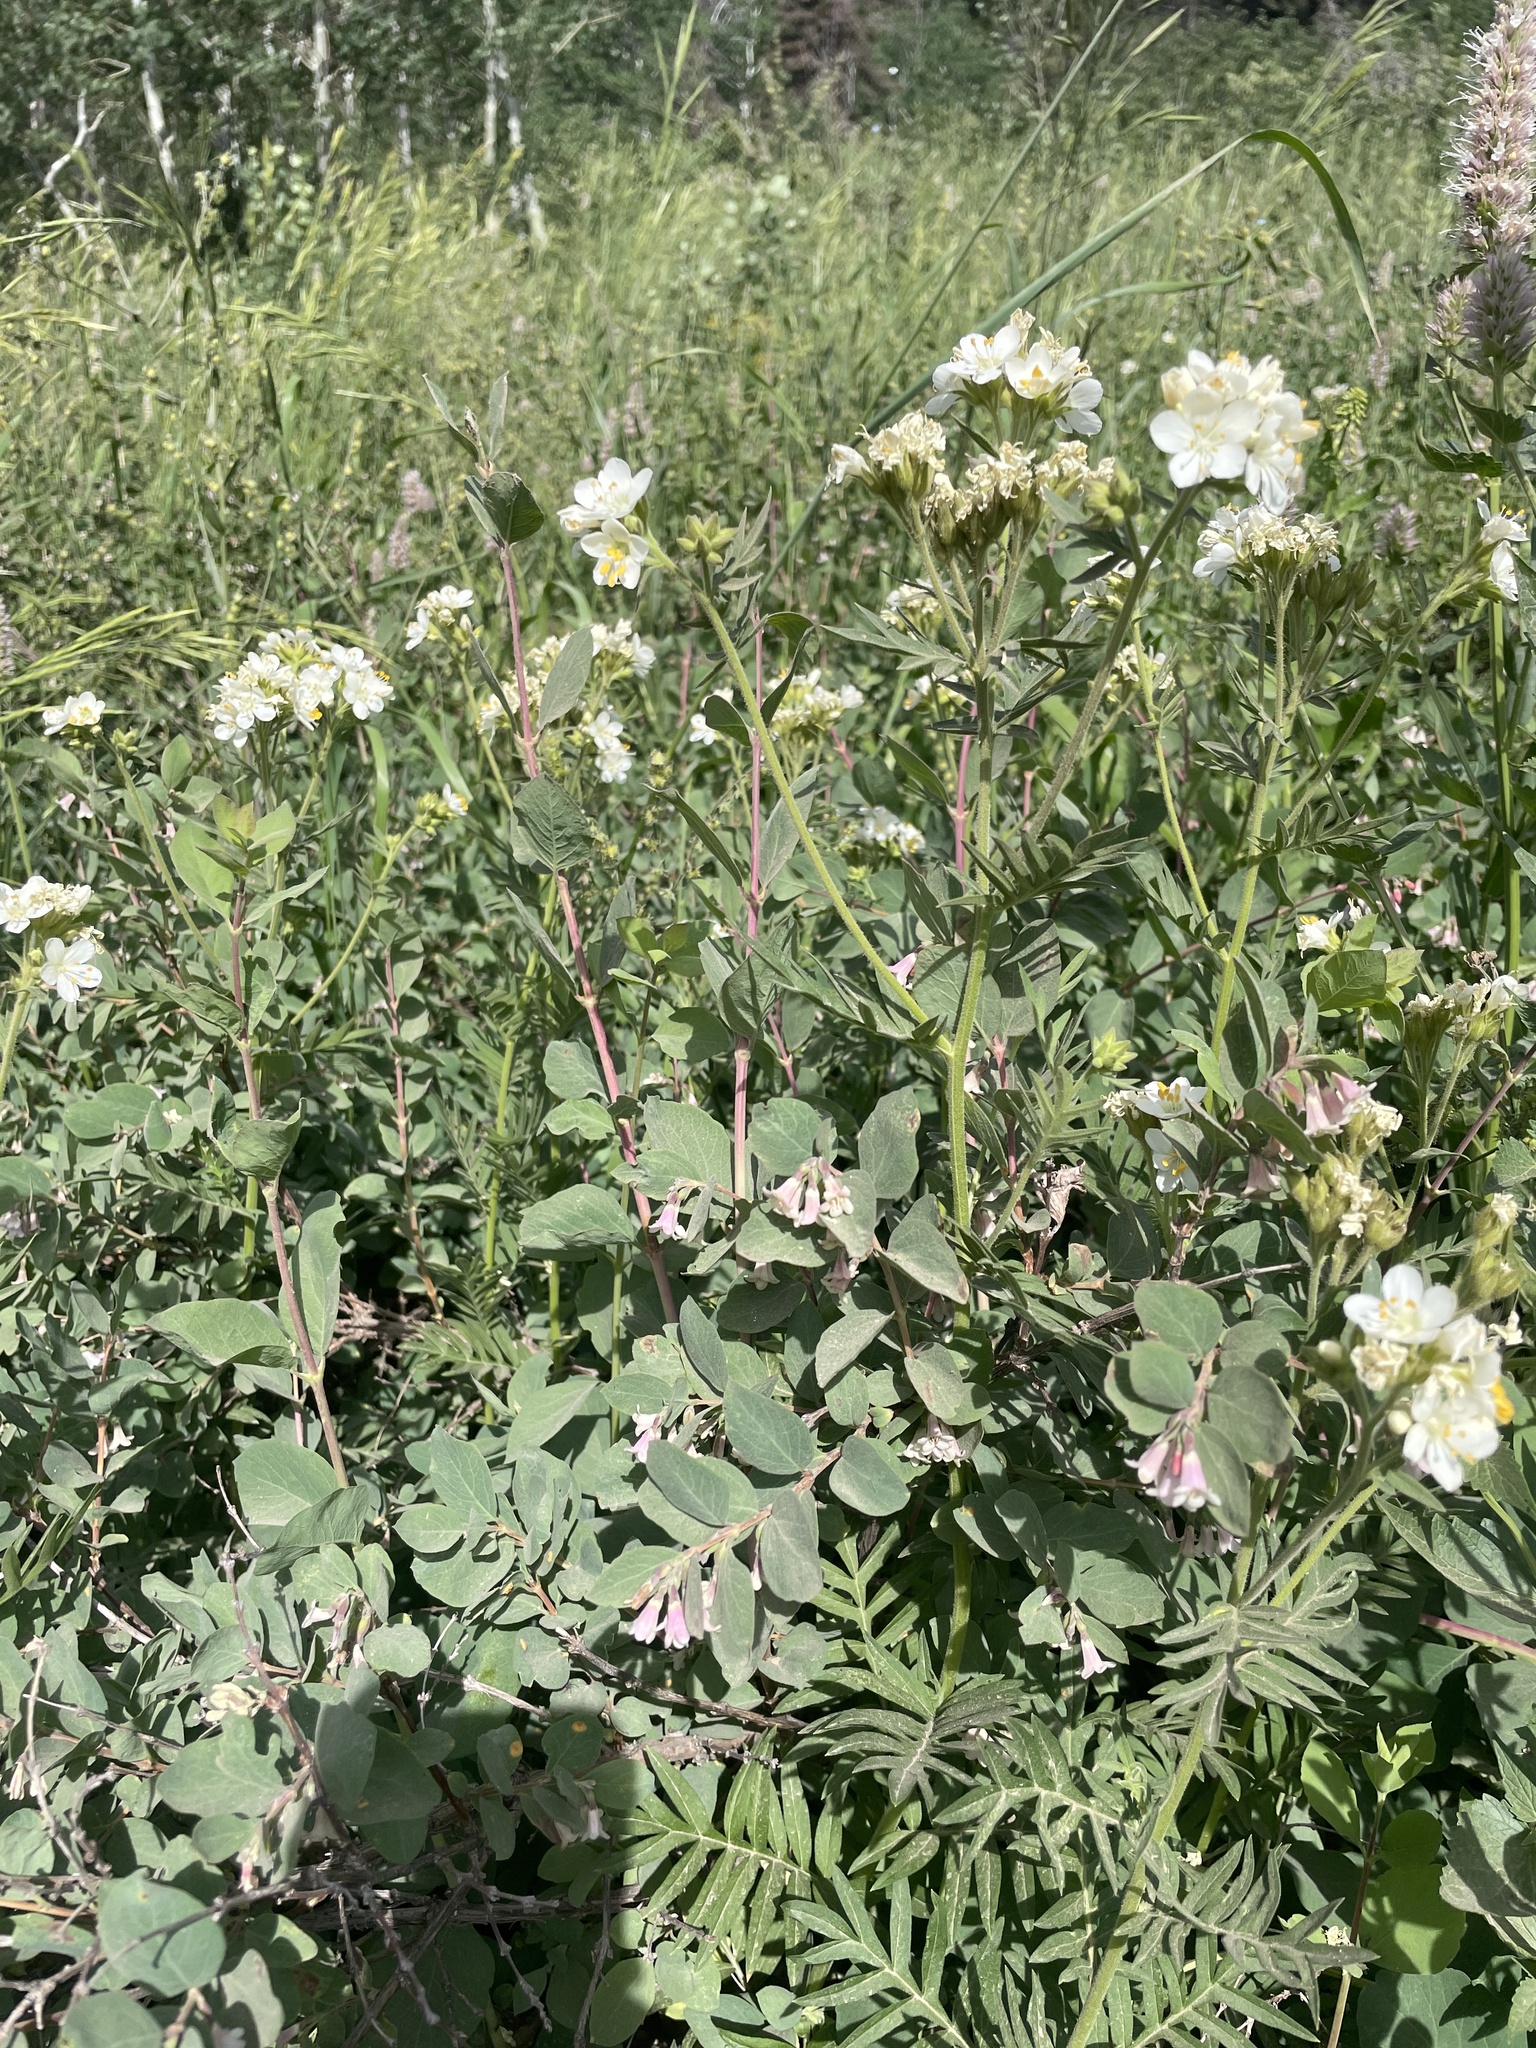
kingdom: Plantae
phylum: Tracheophyta
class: Magnoliopsida
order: Ericales
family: Polemoniaceae
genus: Polemonium
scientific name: Polemonium foliosissimum
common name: Leafy jacob's-ladder
